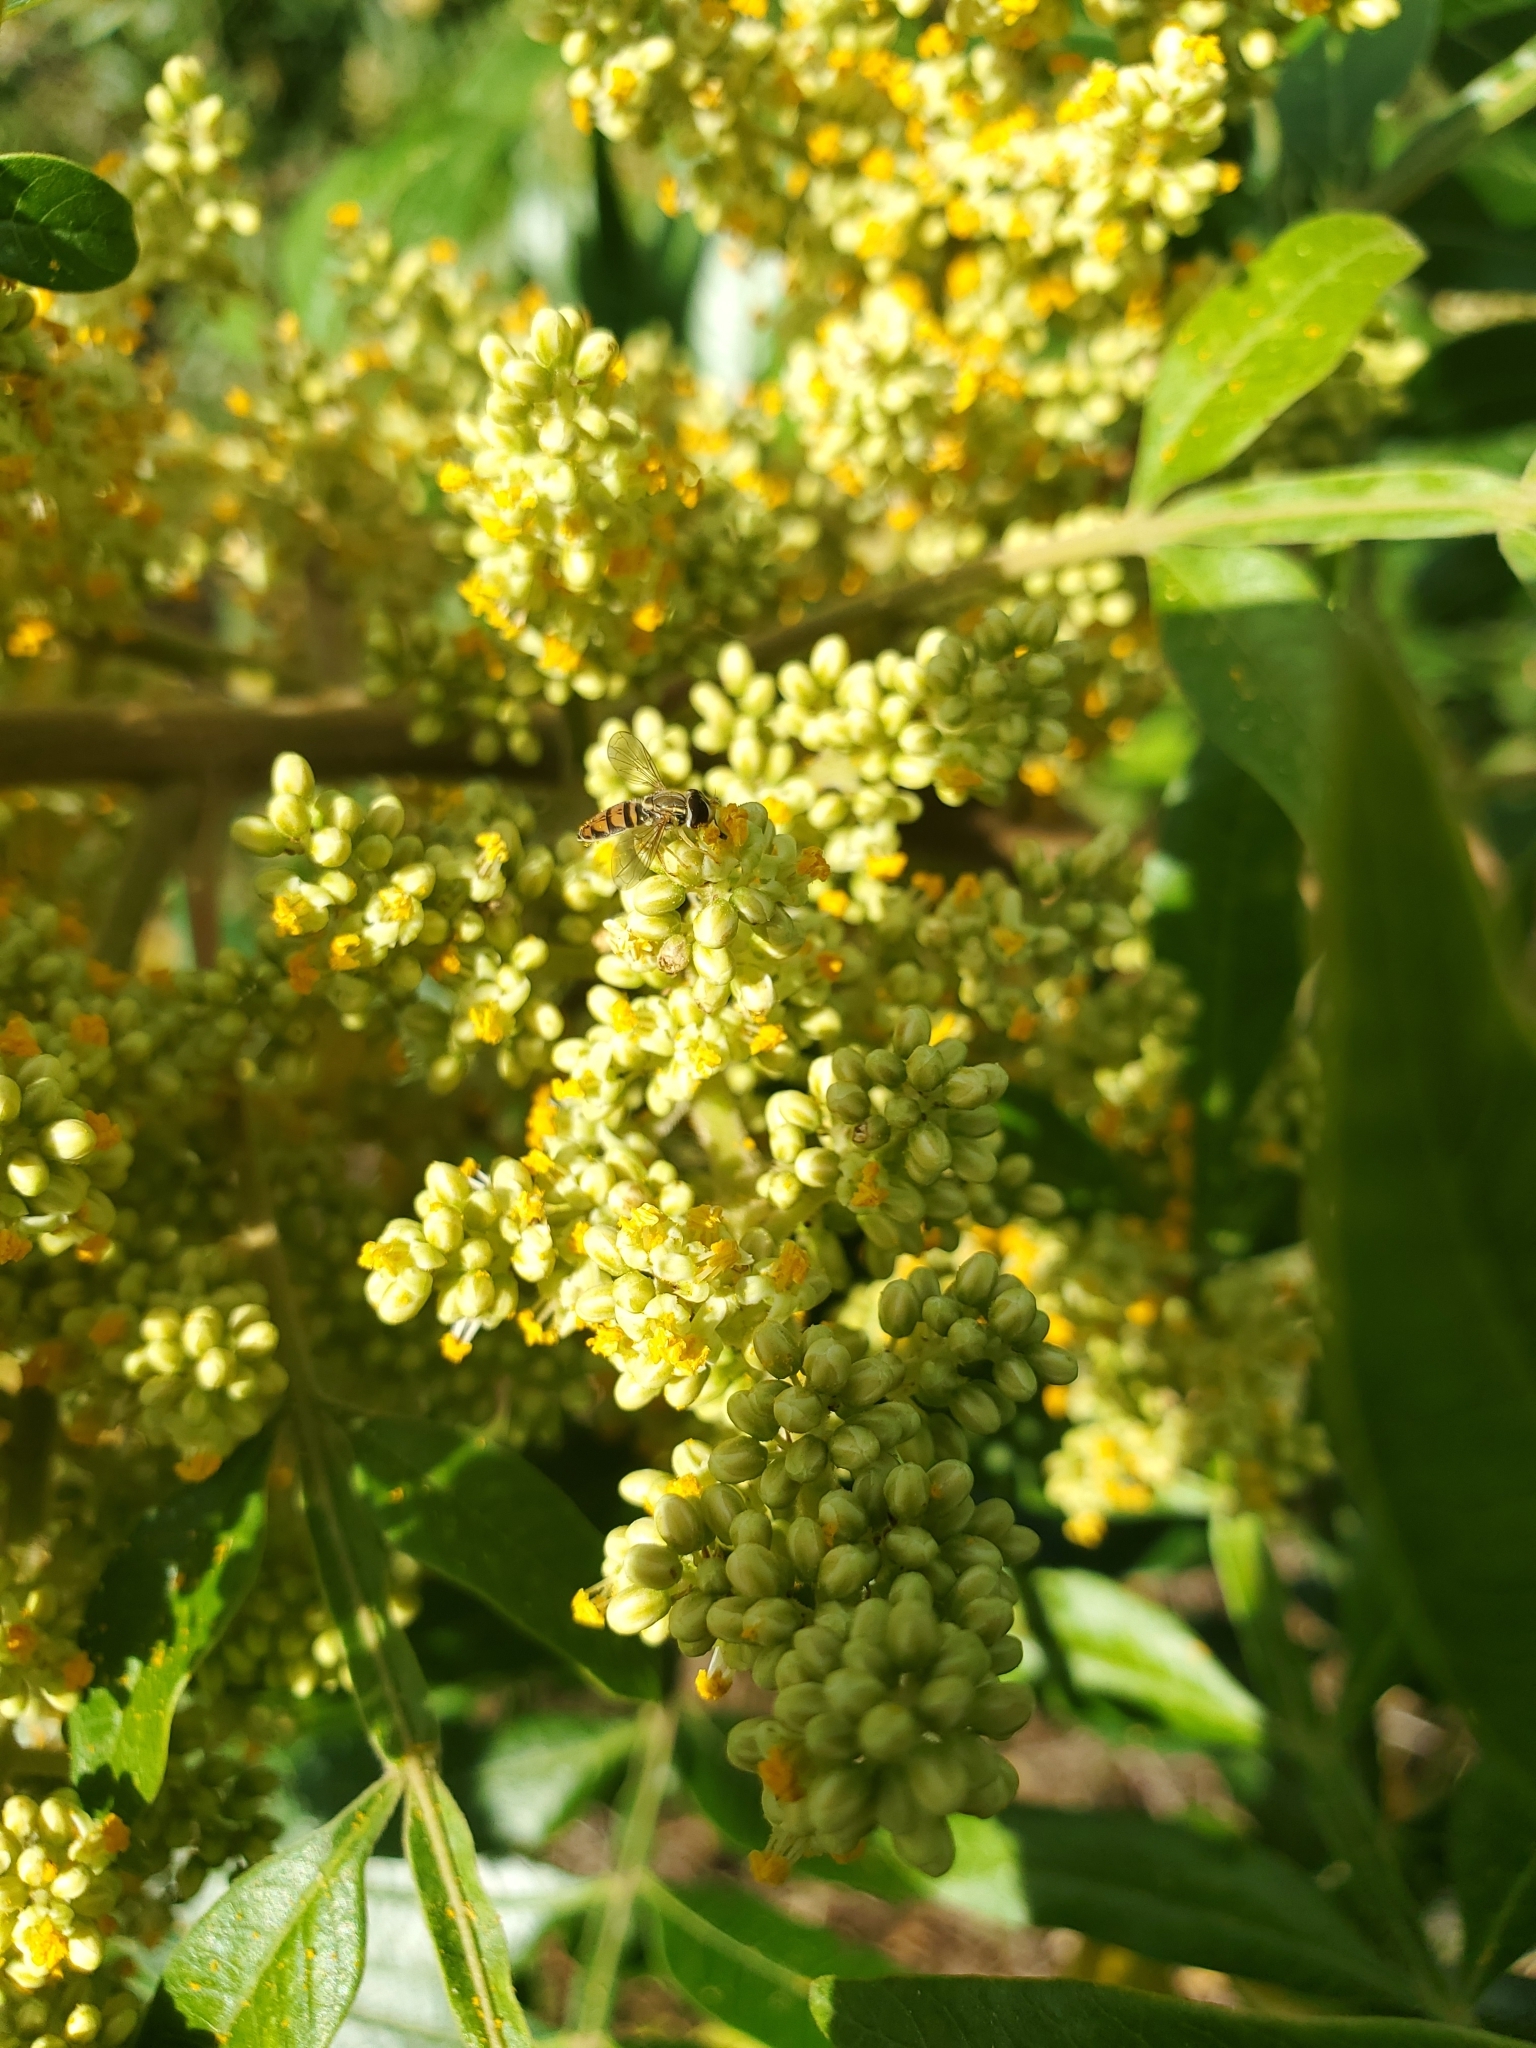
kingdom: Animalia
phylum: Arthropoda
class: Insecta
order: Diptera
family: Syrphidae
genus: Toxomerus
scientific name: Toxomerus marginatus
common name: Syrphid fly
